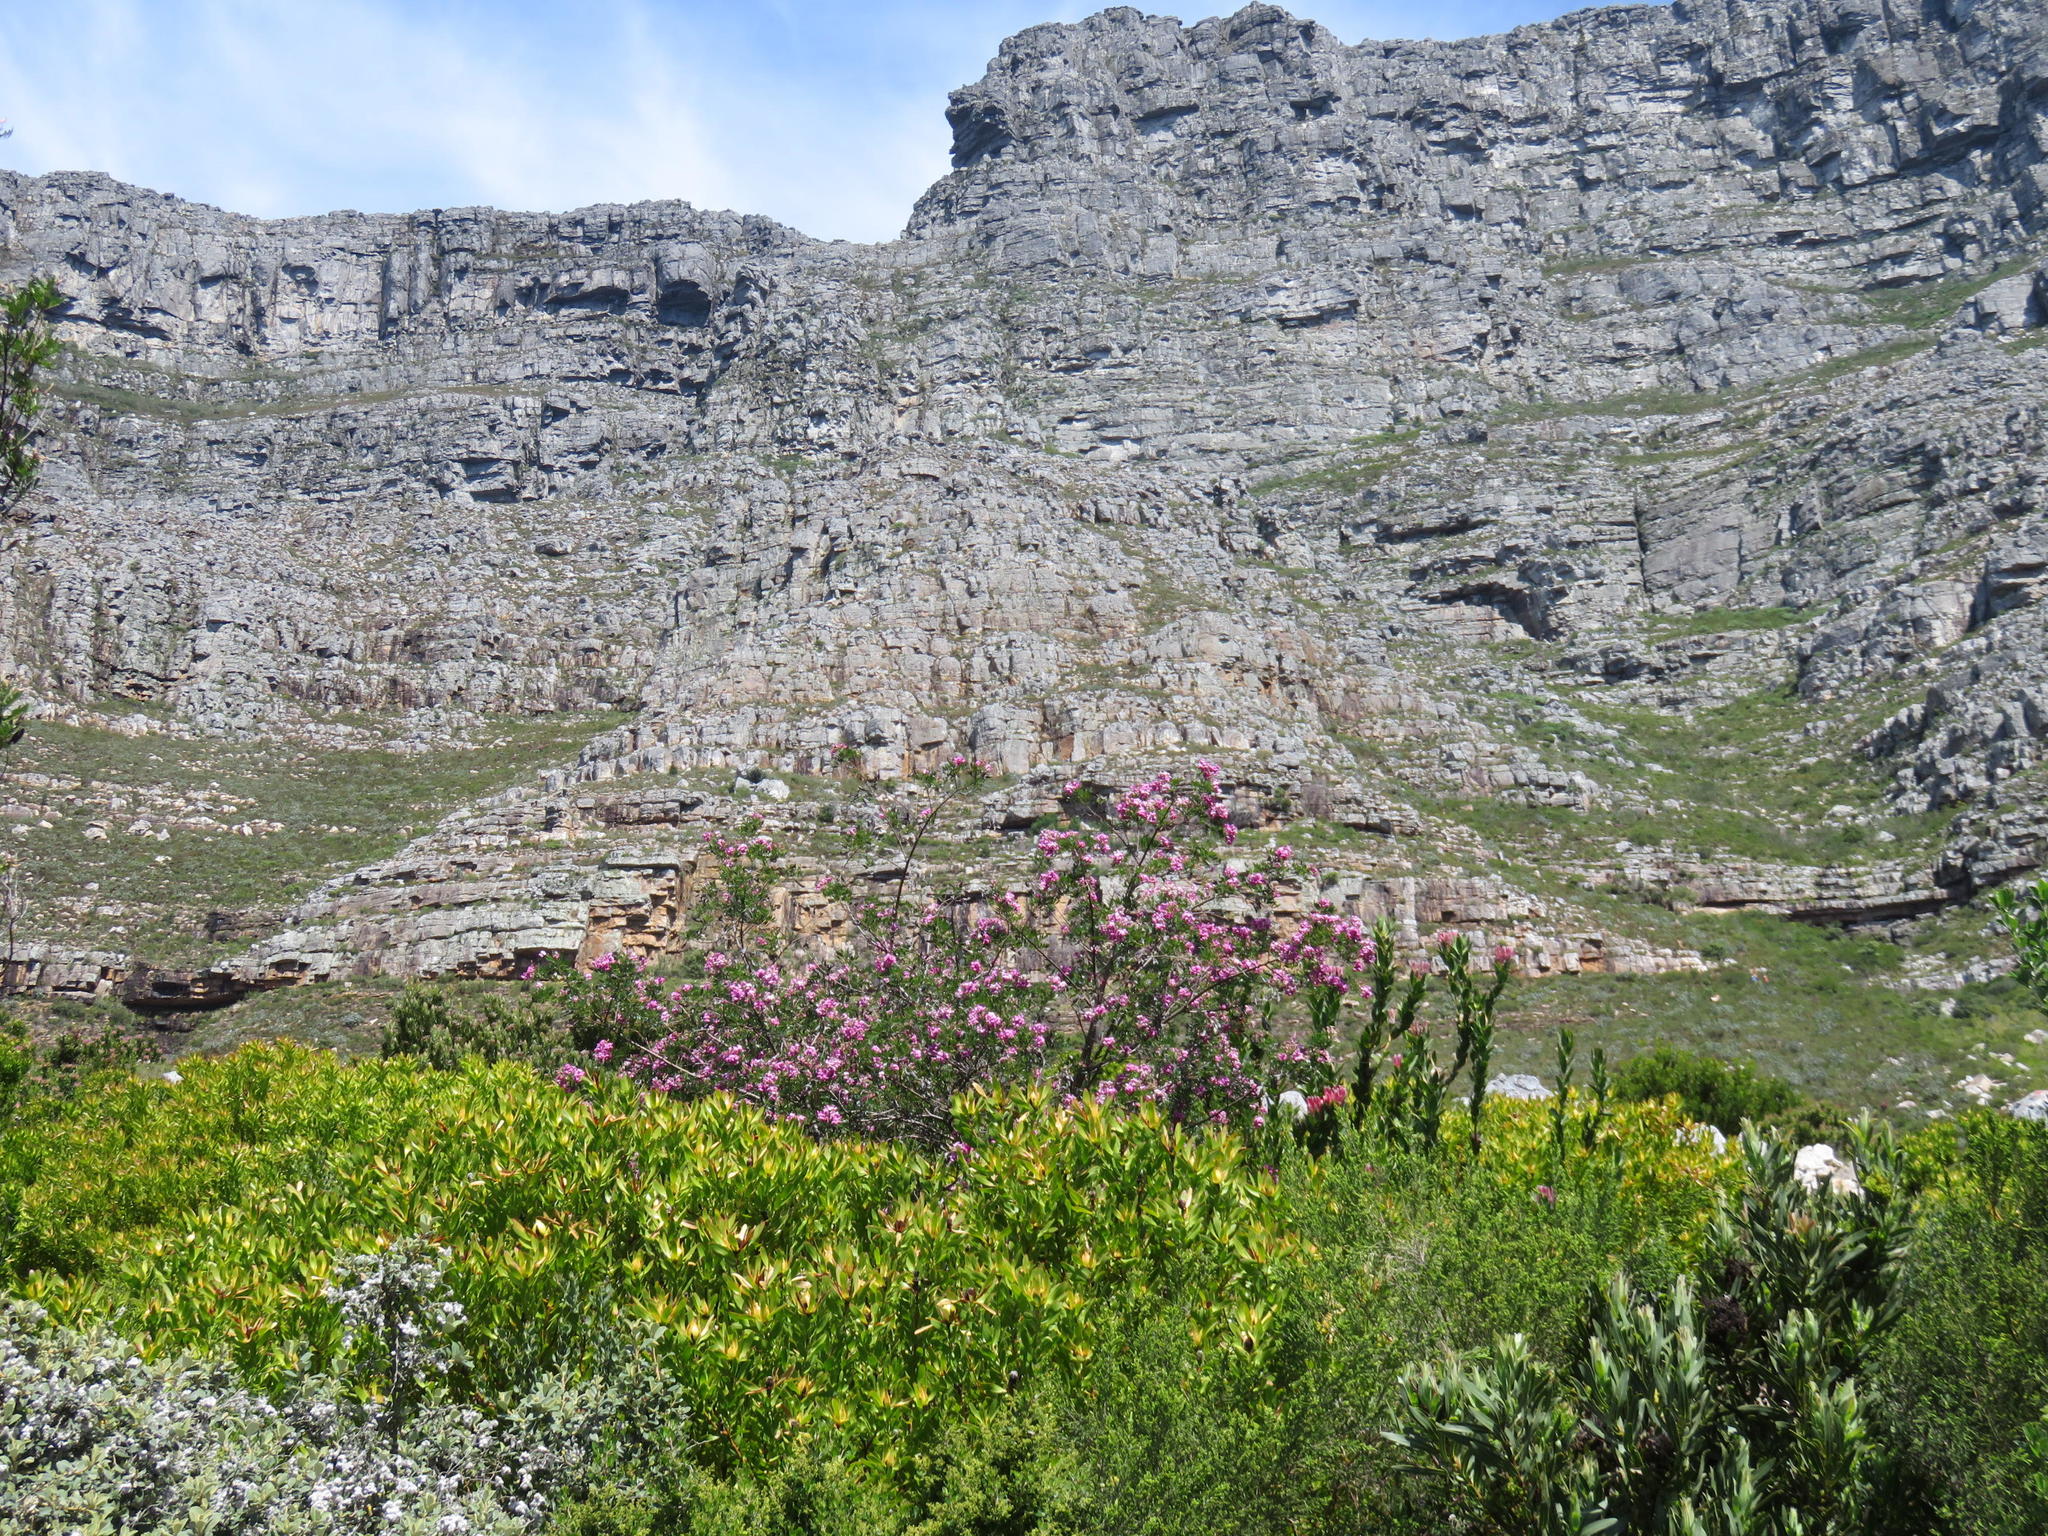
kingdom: Plantae
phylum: Tracheophyta
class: Magnoliopsida
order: Proteales
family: Proteaceae
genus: Protea
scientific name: Protea compacta
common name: Bot river protea
